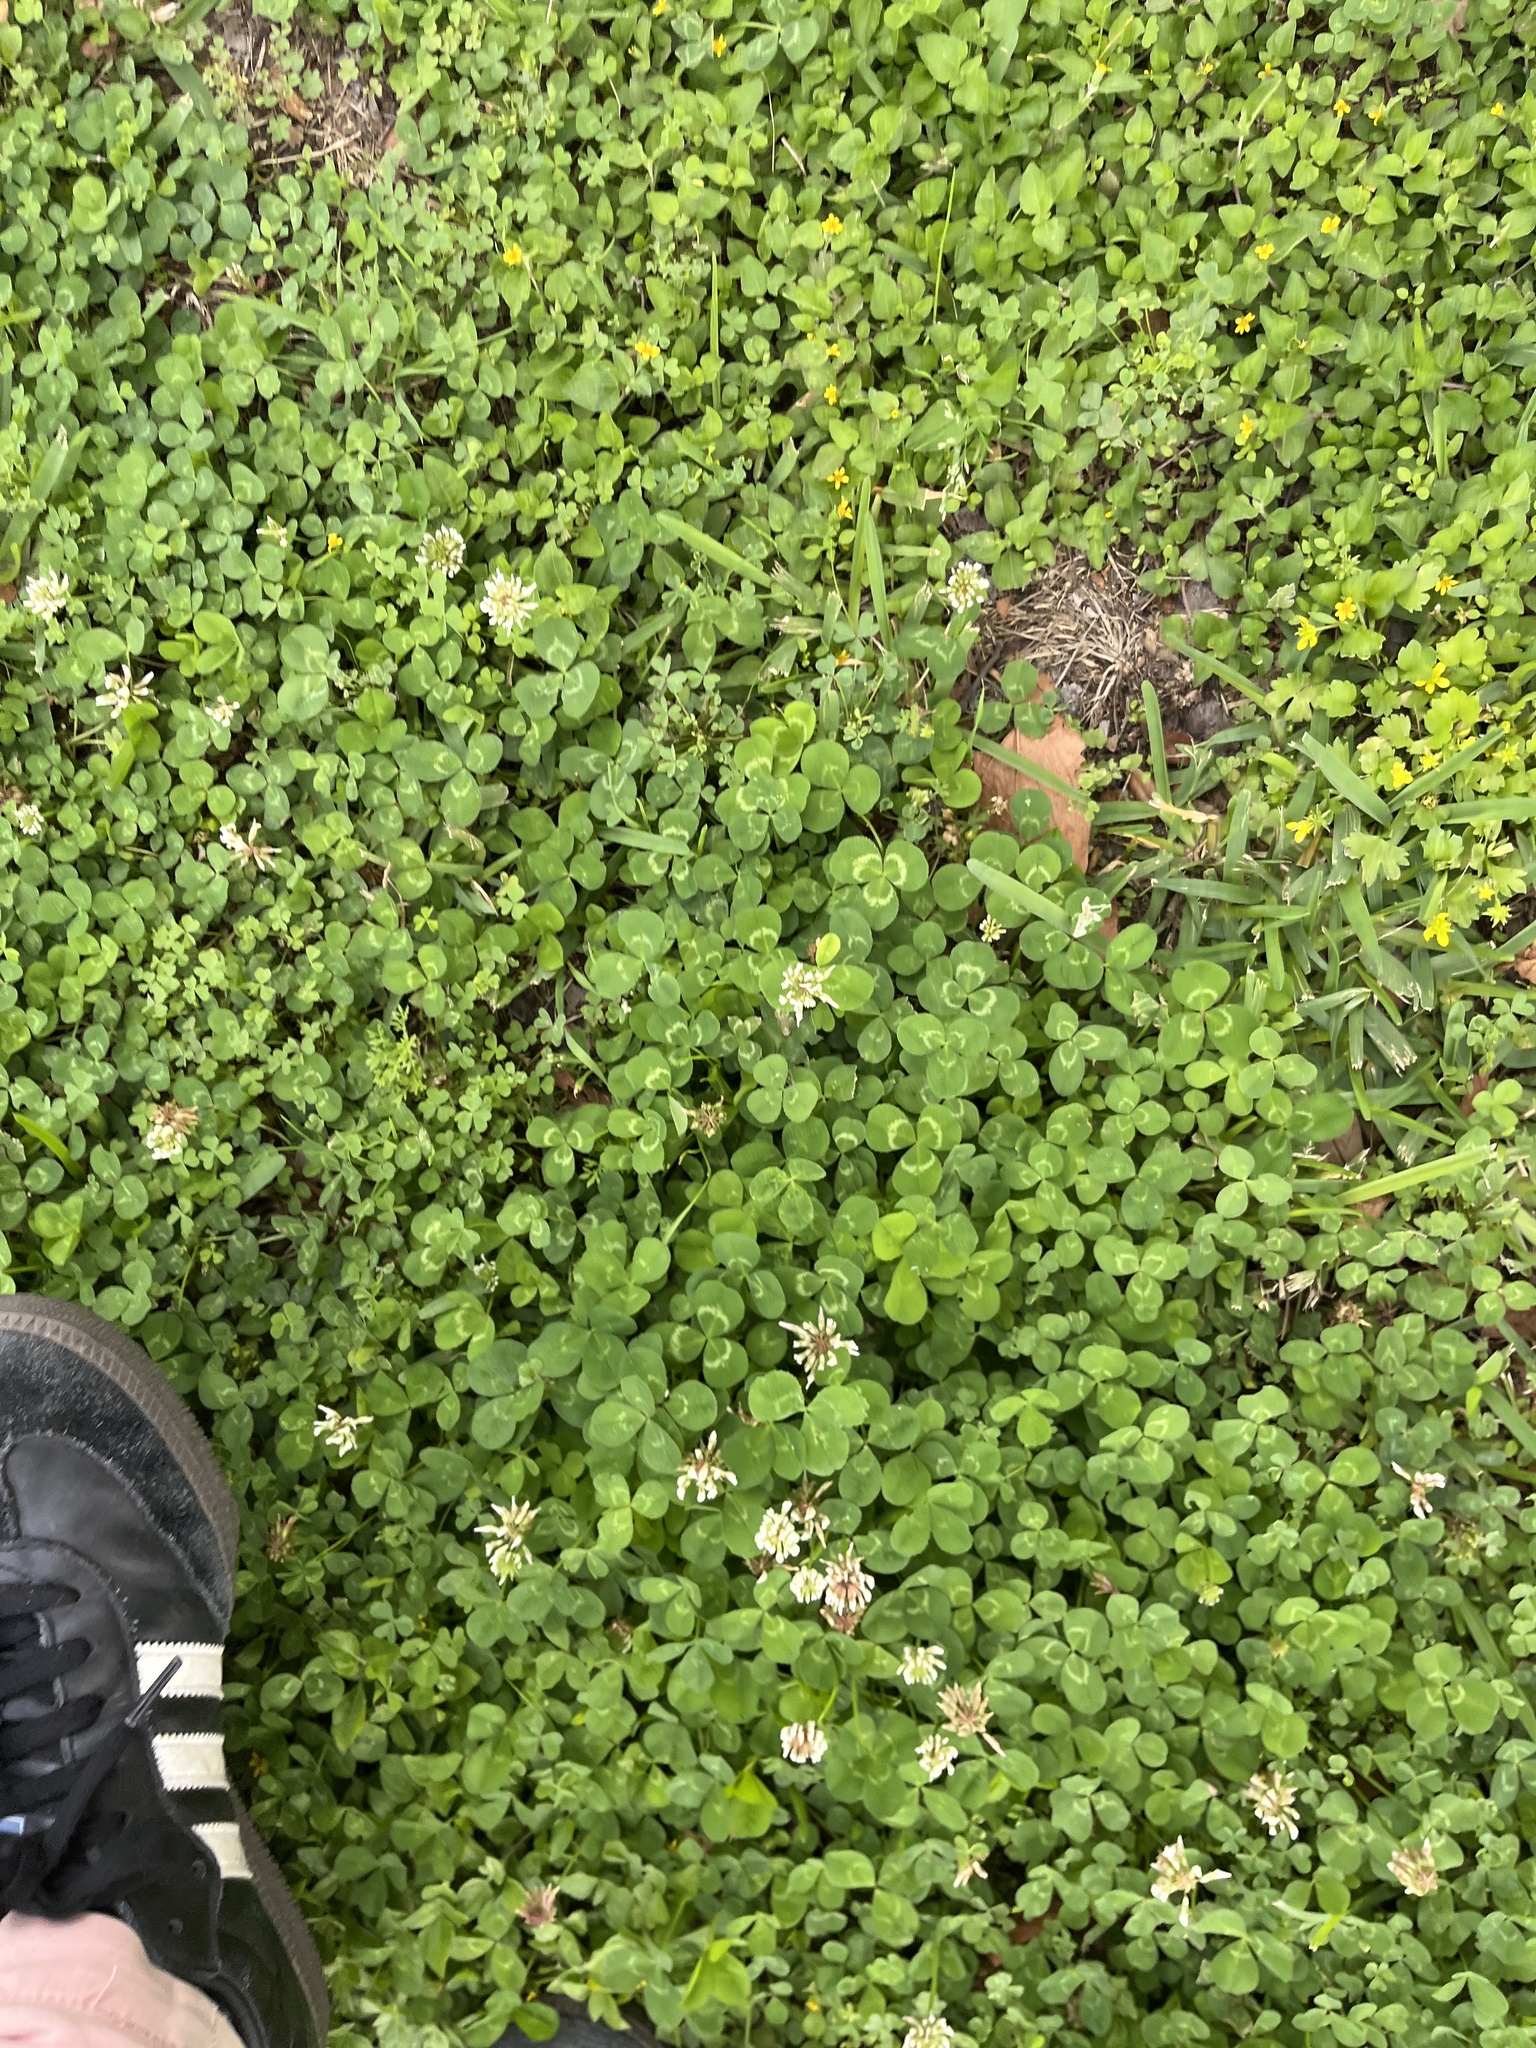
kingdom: Plantae
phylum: Tracheophyta
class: Magnoliopsida
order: Fabales
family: Fabaceae
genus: Trifolium
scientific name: Trifolium repens
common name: White clover
